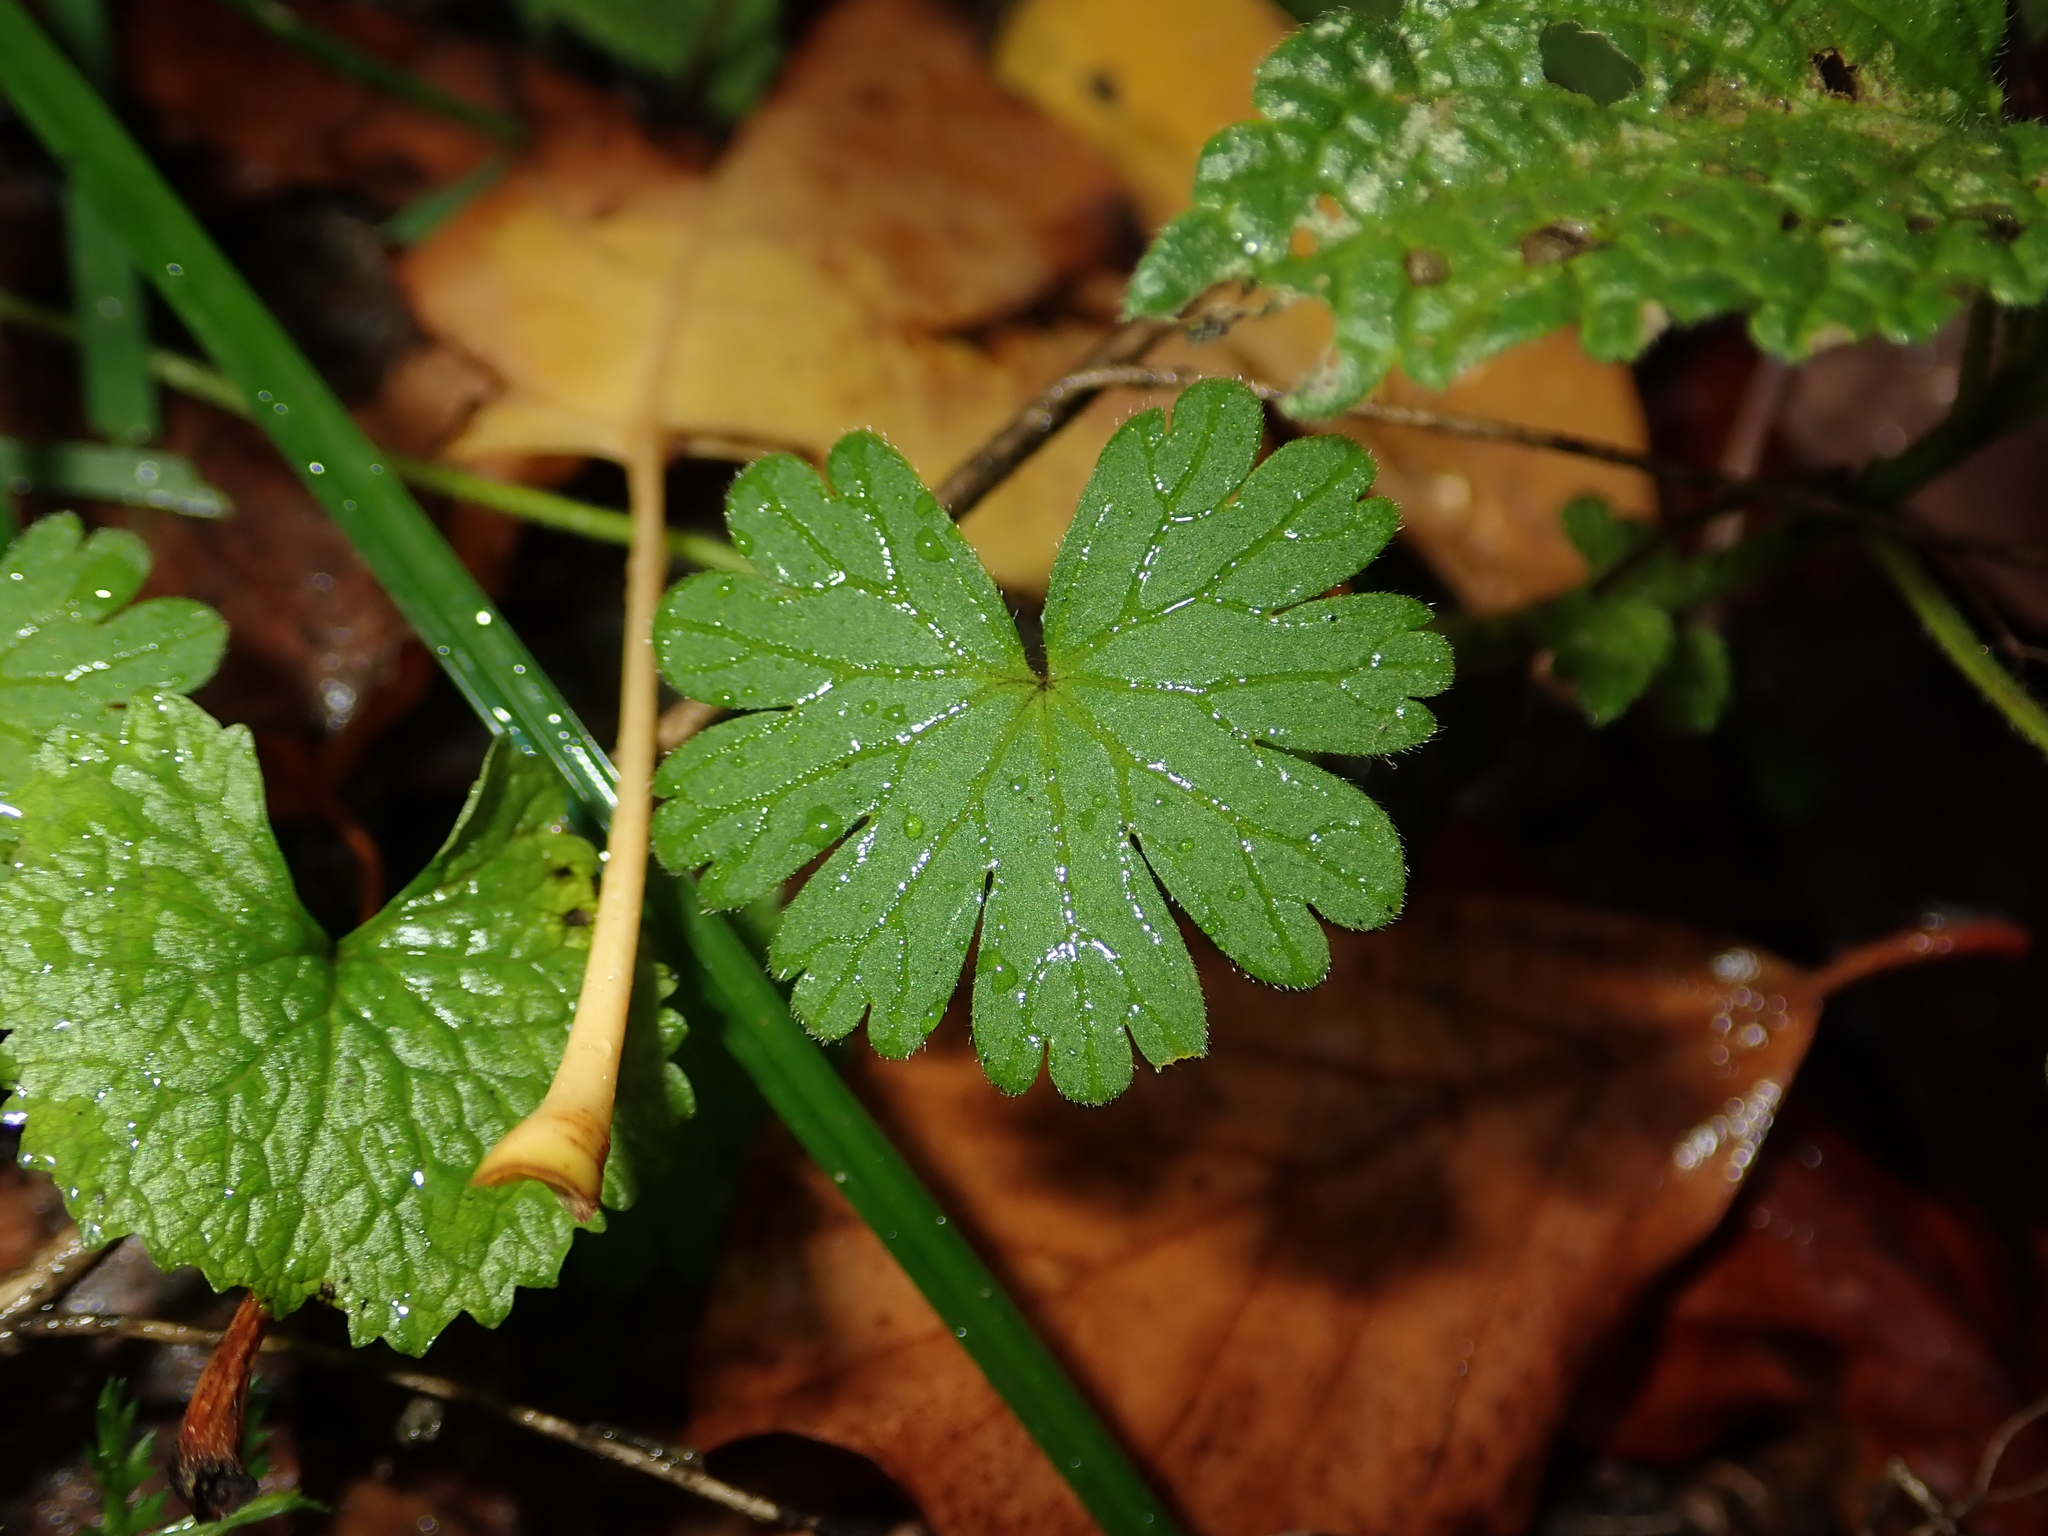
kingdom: Plantae
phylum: Tracheophyta
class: Magnoliopsida
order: Geraniales
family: Geraniaceae
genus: Geranium
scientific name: Geranium molle
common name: Dove's-foot crane's-bill
